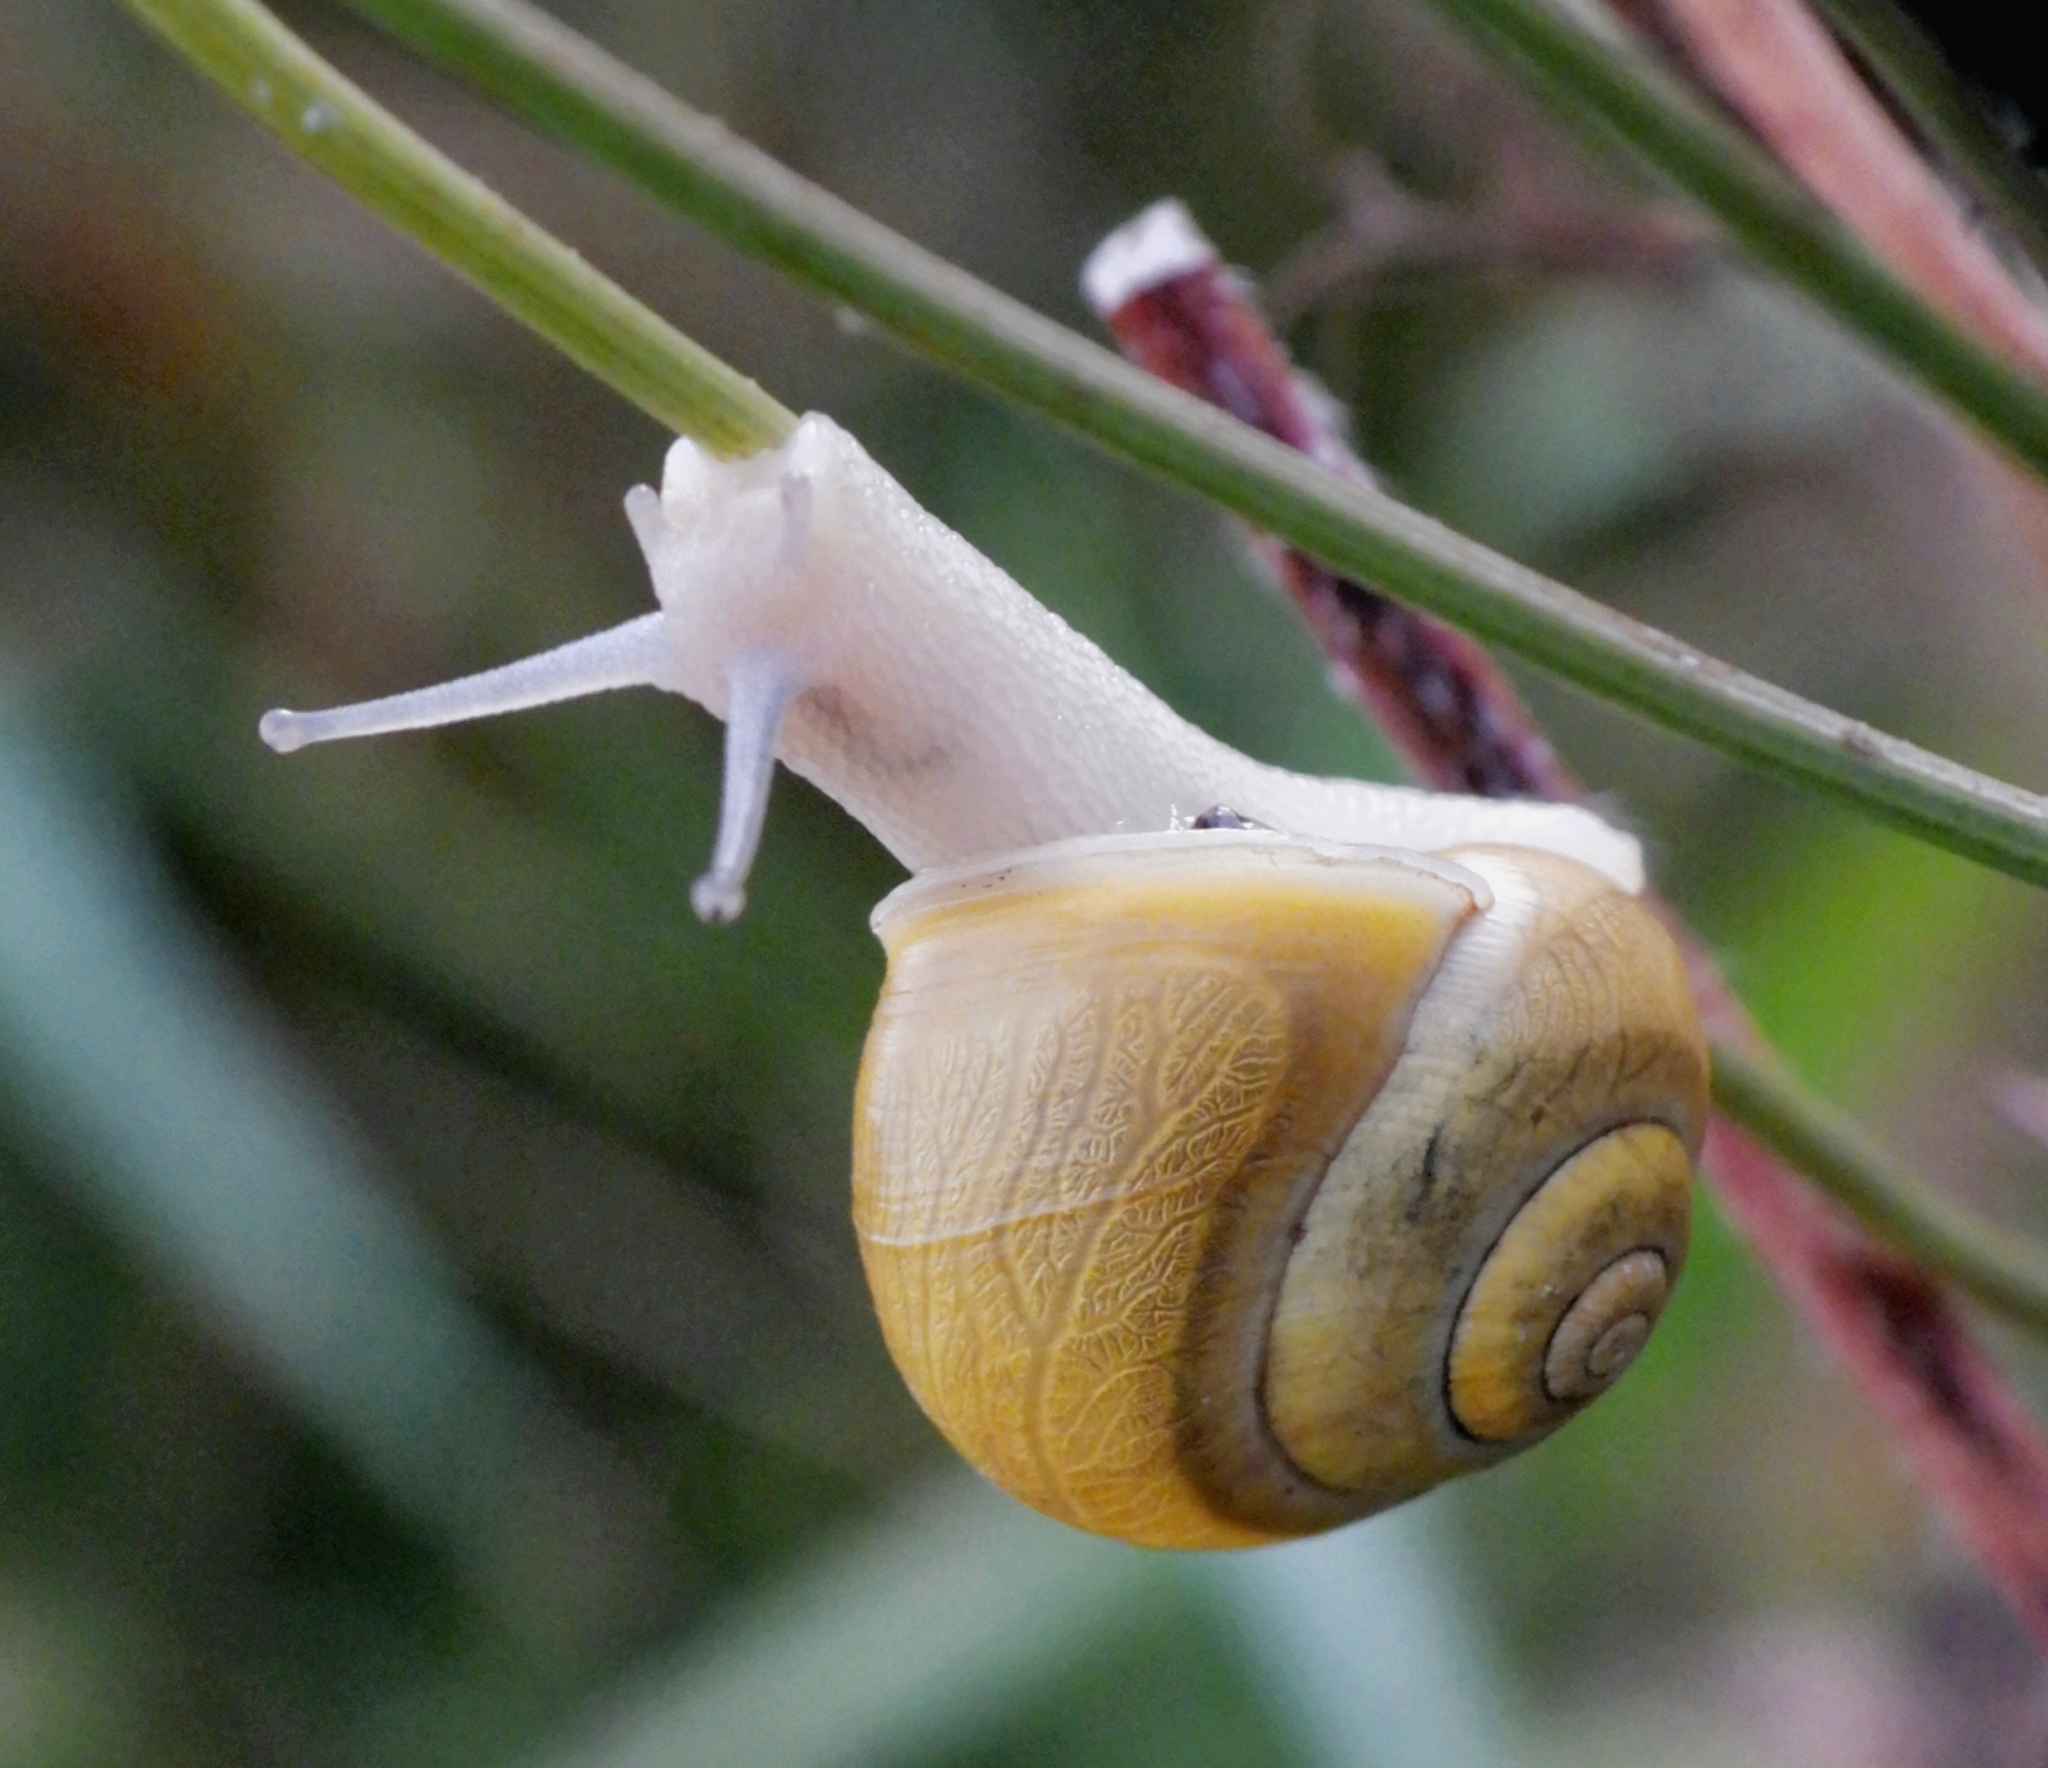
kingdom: Animalia
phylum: Mollusca
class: Gastropoda
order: Stylommatophora
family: Helicidae
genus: Cepaea
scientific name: Cepaea hortensis
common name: White-lip gardensnail
